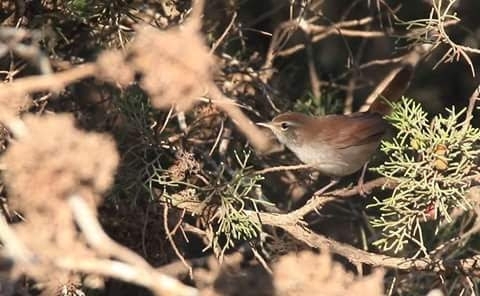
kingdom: Animalia
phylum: Chordata
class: Aves
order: Passeriformes
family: Cettiidae
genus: Cettia
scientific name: Cettia cetti
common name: Cetti's warbler
